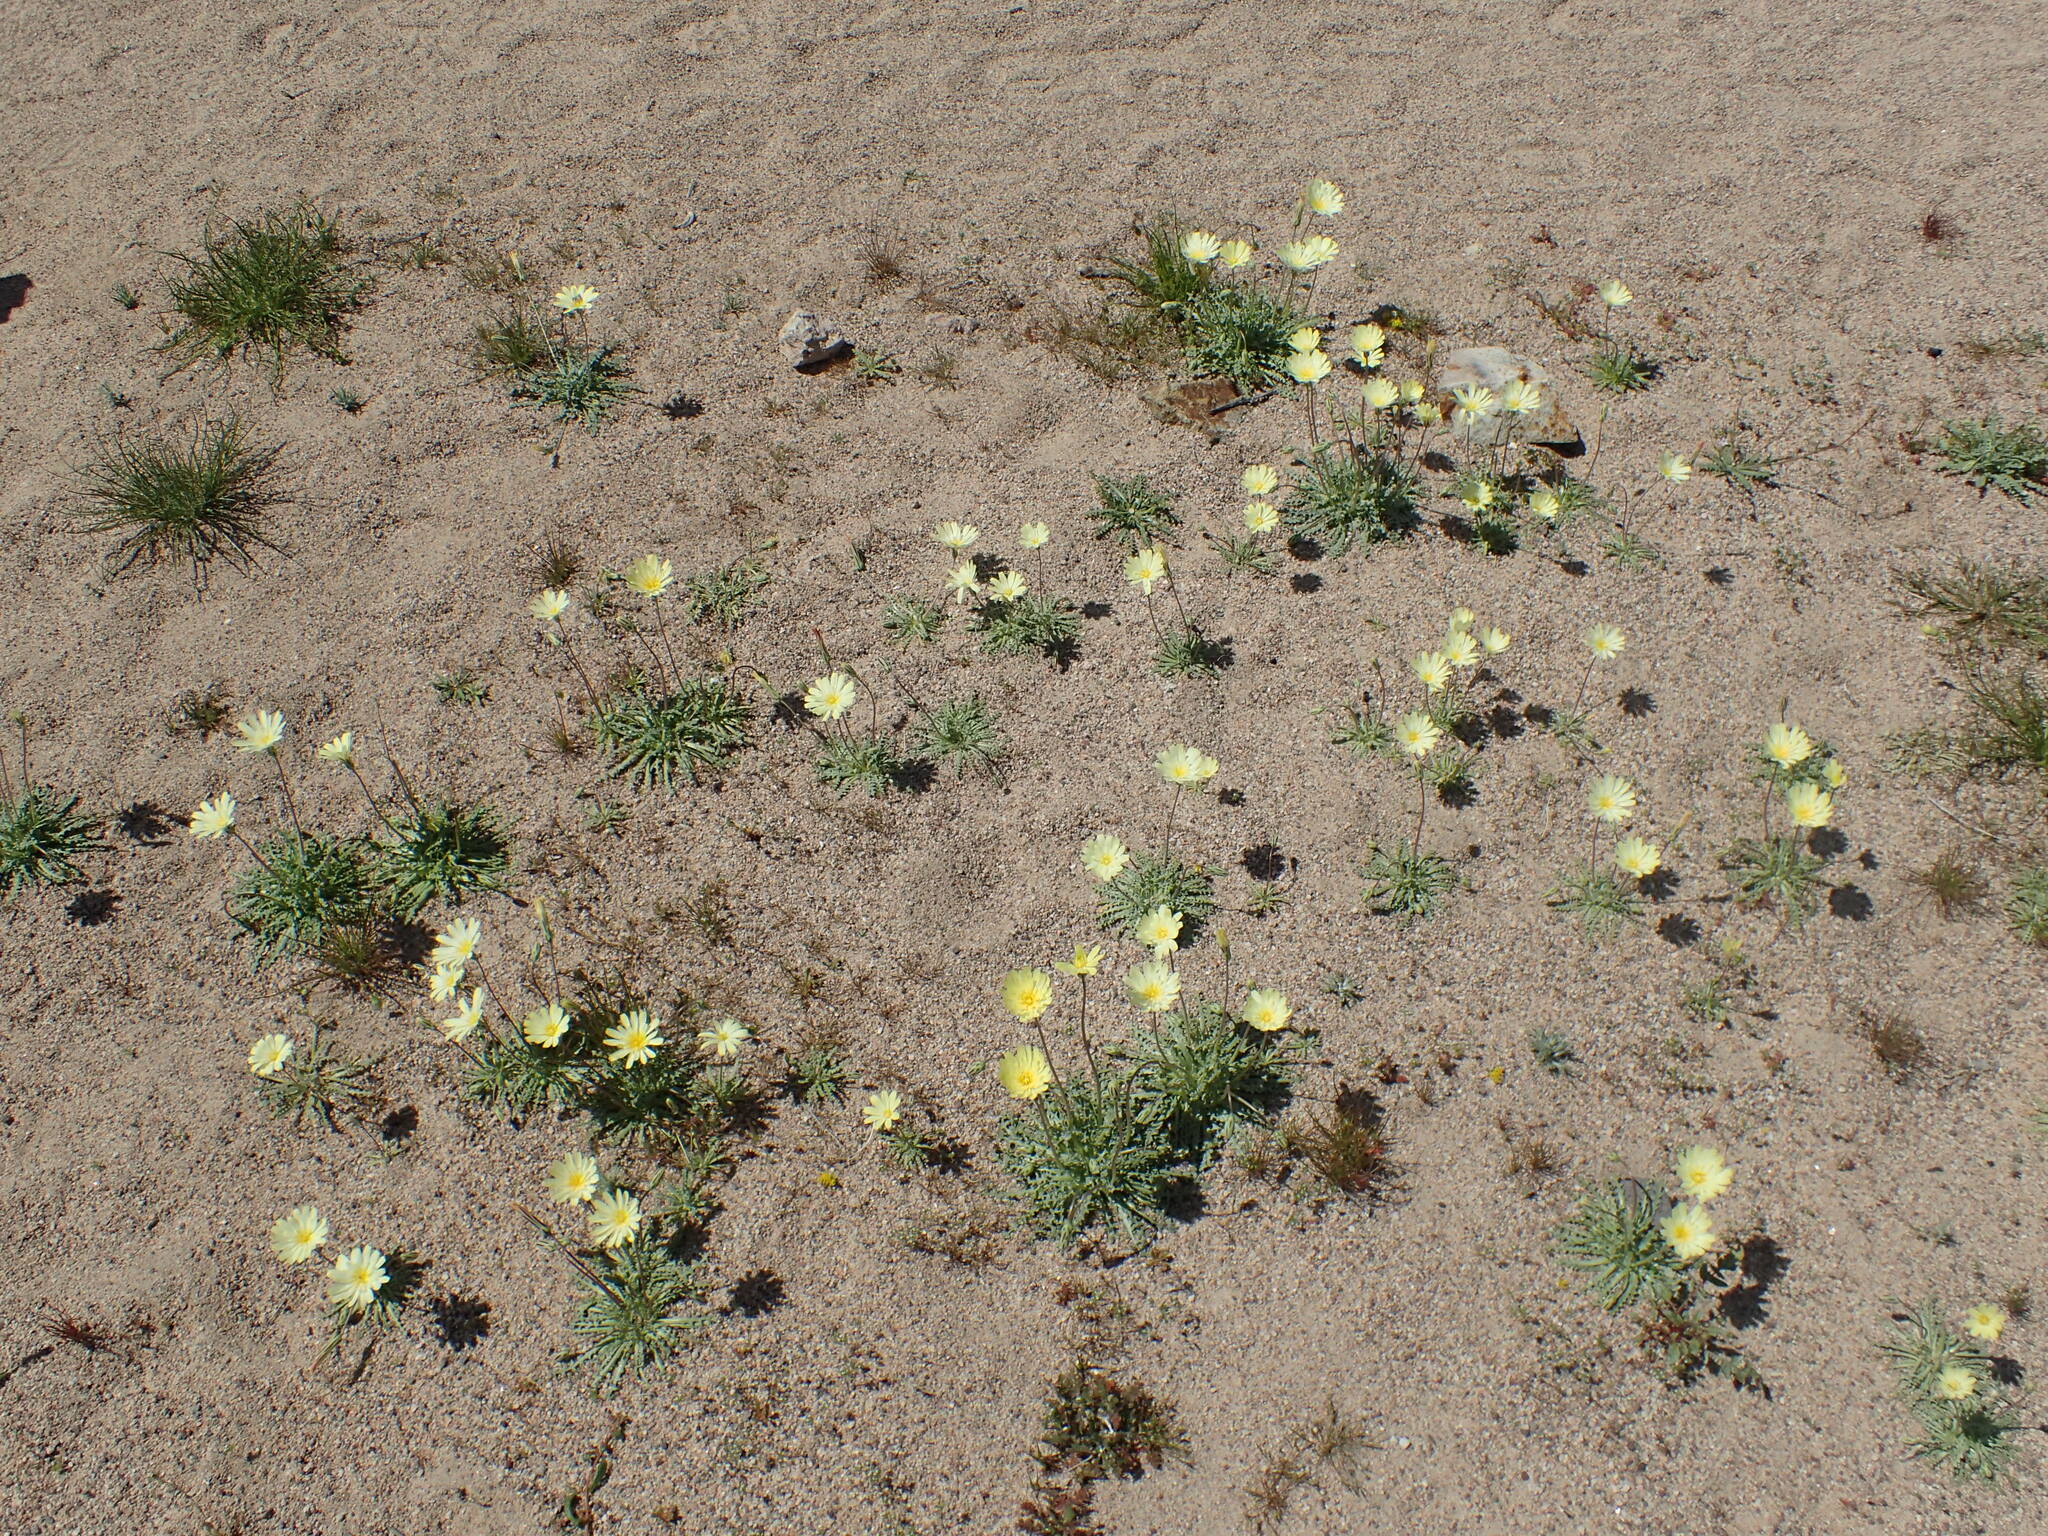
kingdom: Plantae
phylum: Tracheophyta
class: Magnoliopsida
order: Asterales
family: Asteraceae
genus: Anisocoma
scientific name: Anisocoma acaulis
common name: Scalebud
